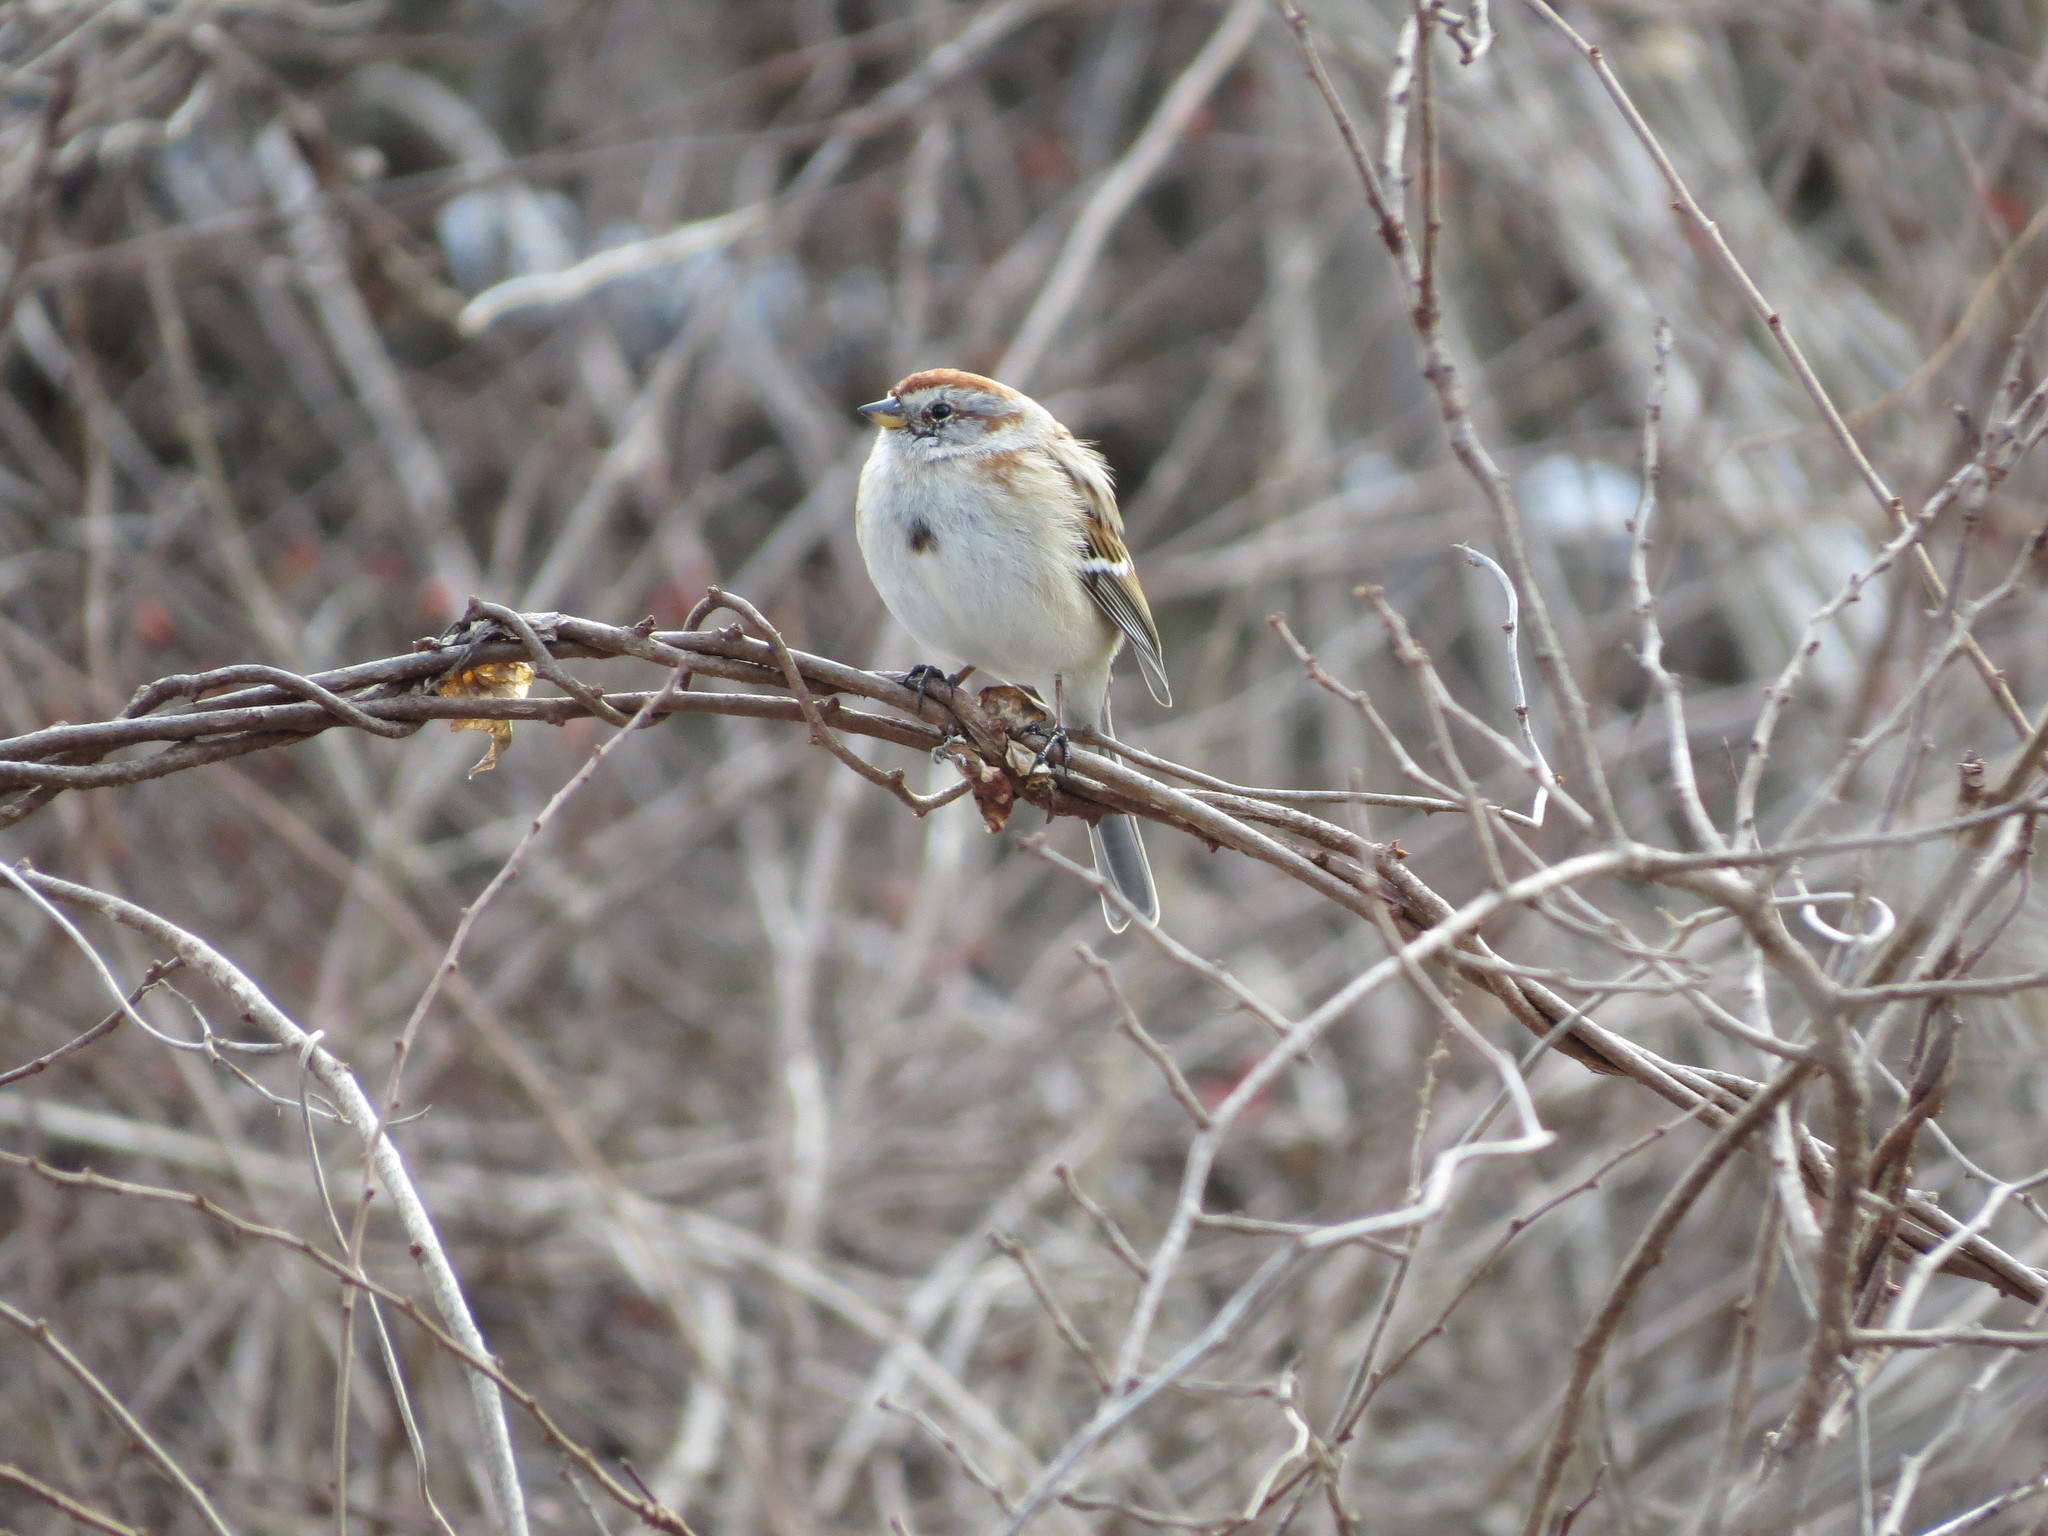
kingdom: Animalia
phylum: Chordata
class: Aves
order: Passeriformes
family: Passerellidae
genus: Spizelloides
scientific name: Spizelloides arborea
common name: American tree sparrow
